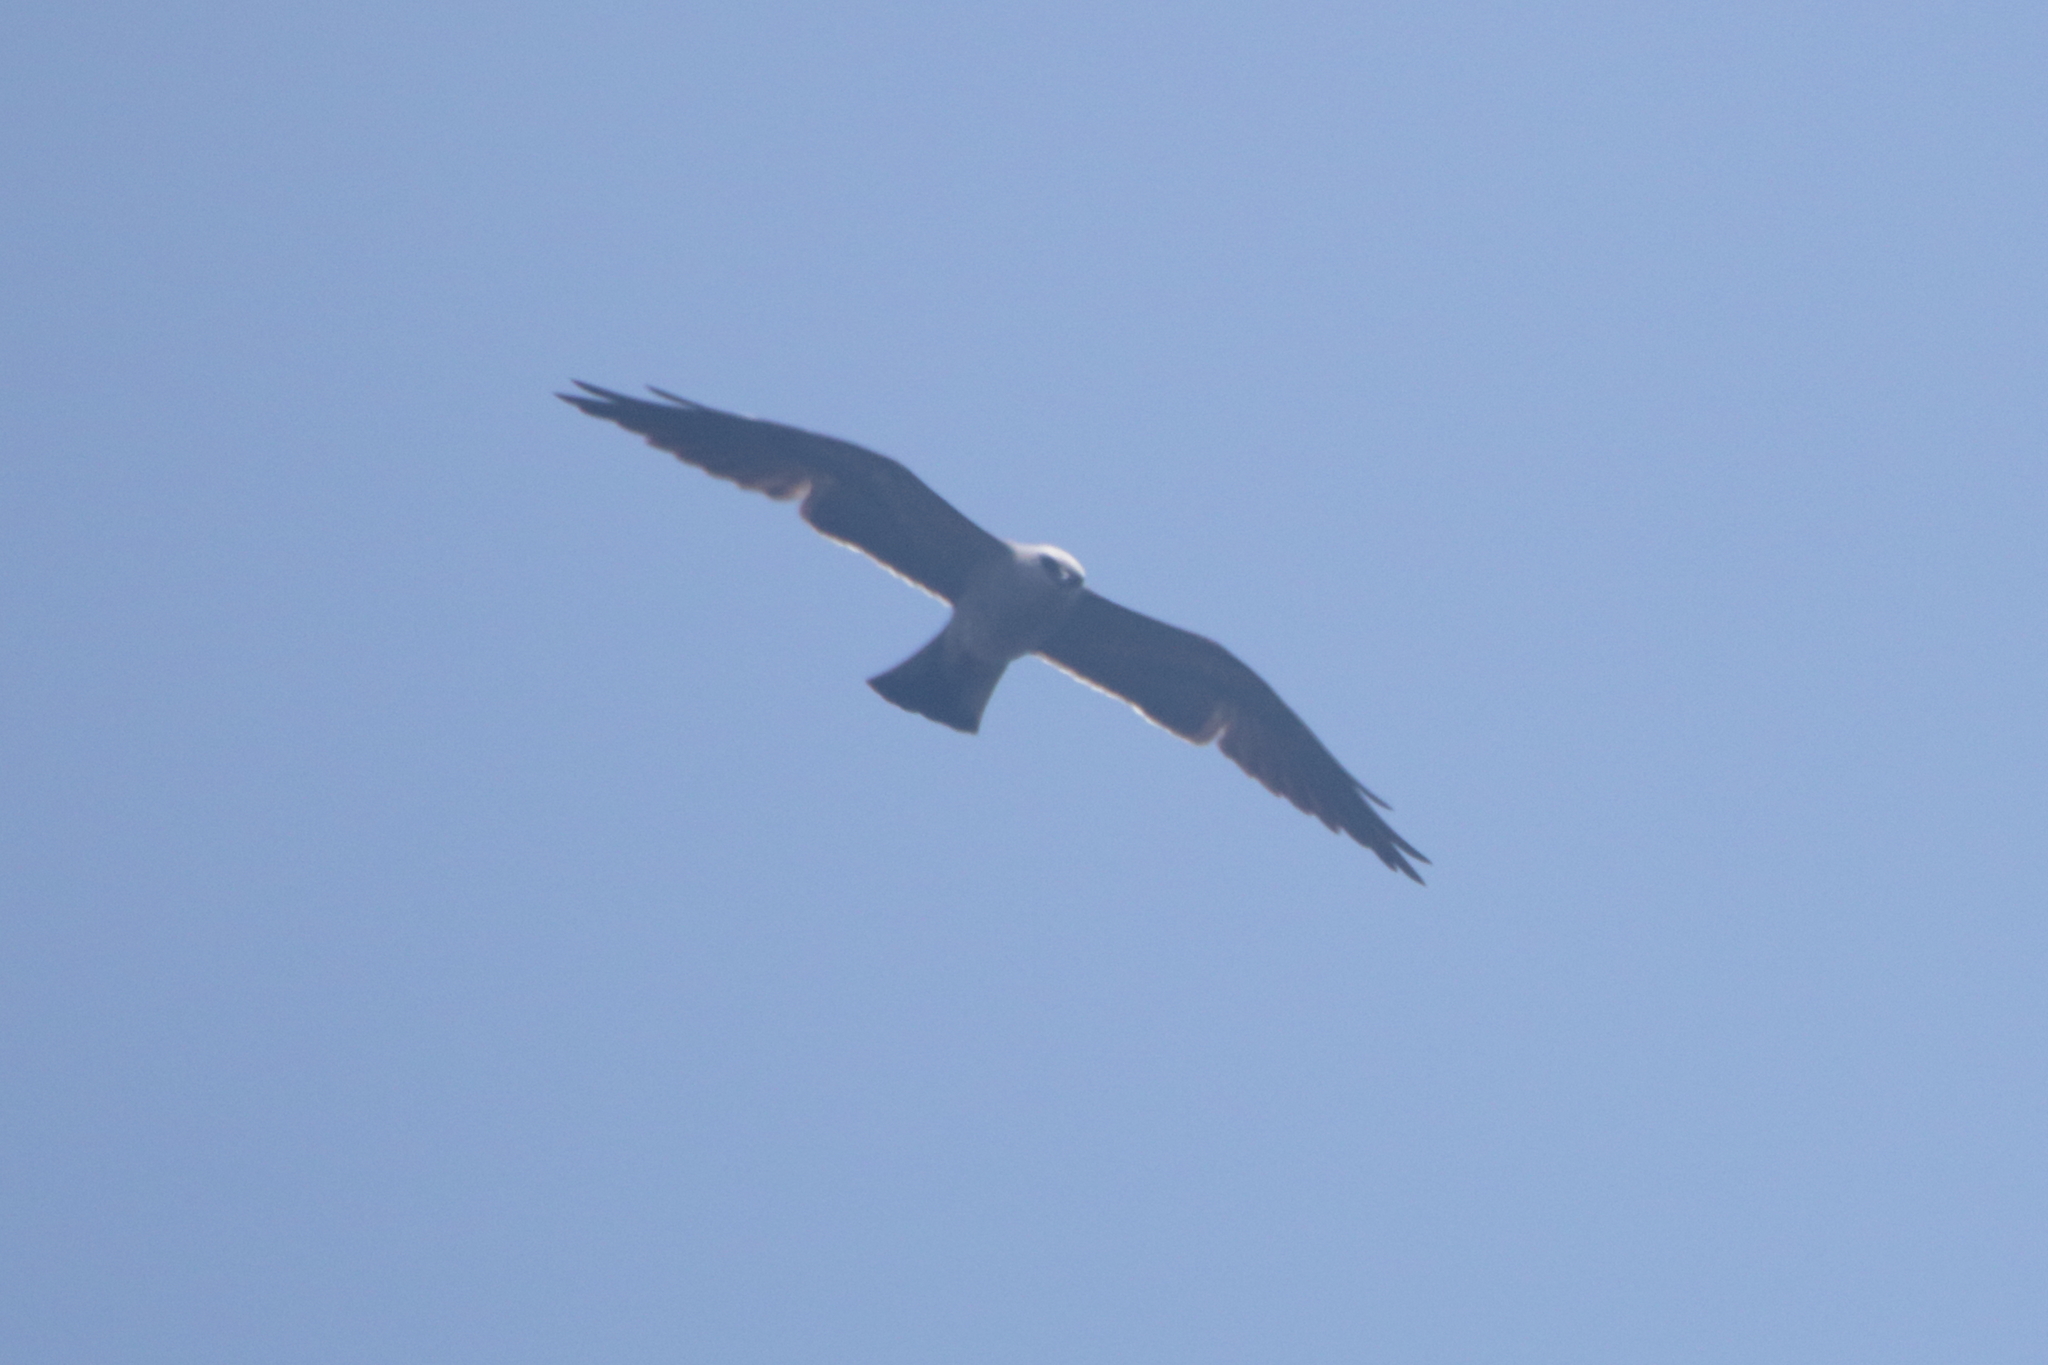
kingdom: Animalia
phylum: Chordata
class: Aves
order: Accipitriformes
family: Accipitridae
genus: Ictinia
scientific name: Ictinia mississippiensis
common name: Mississippi kite
